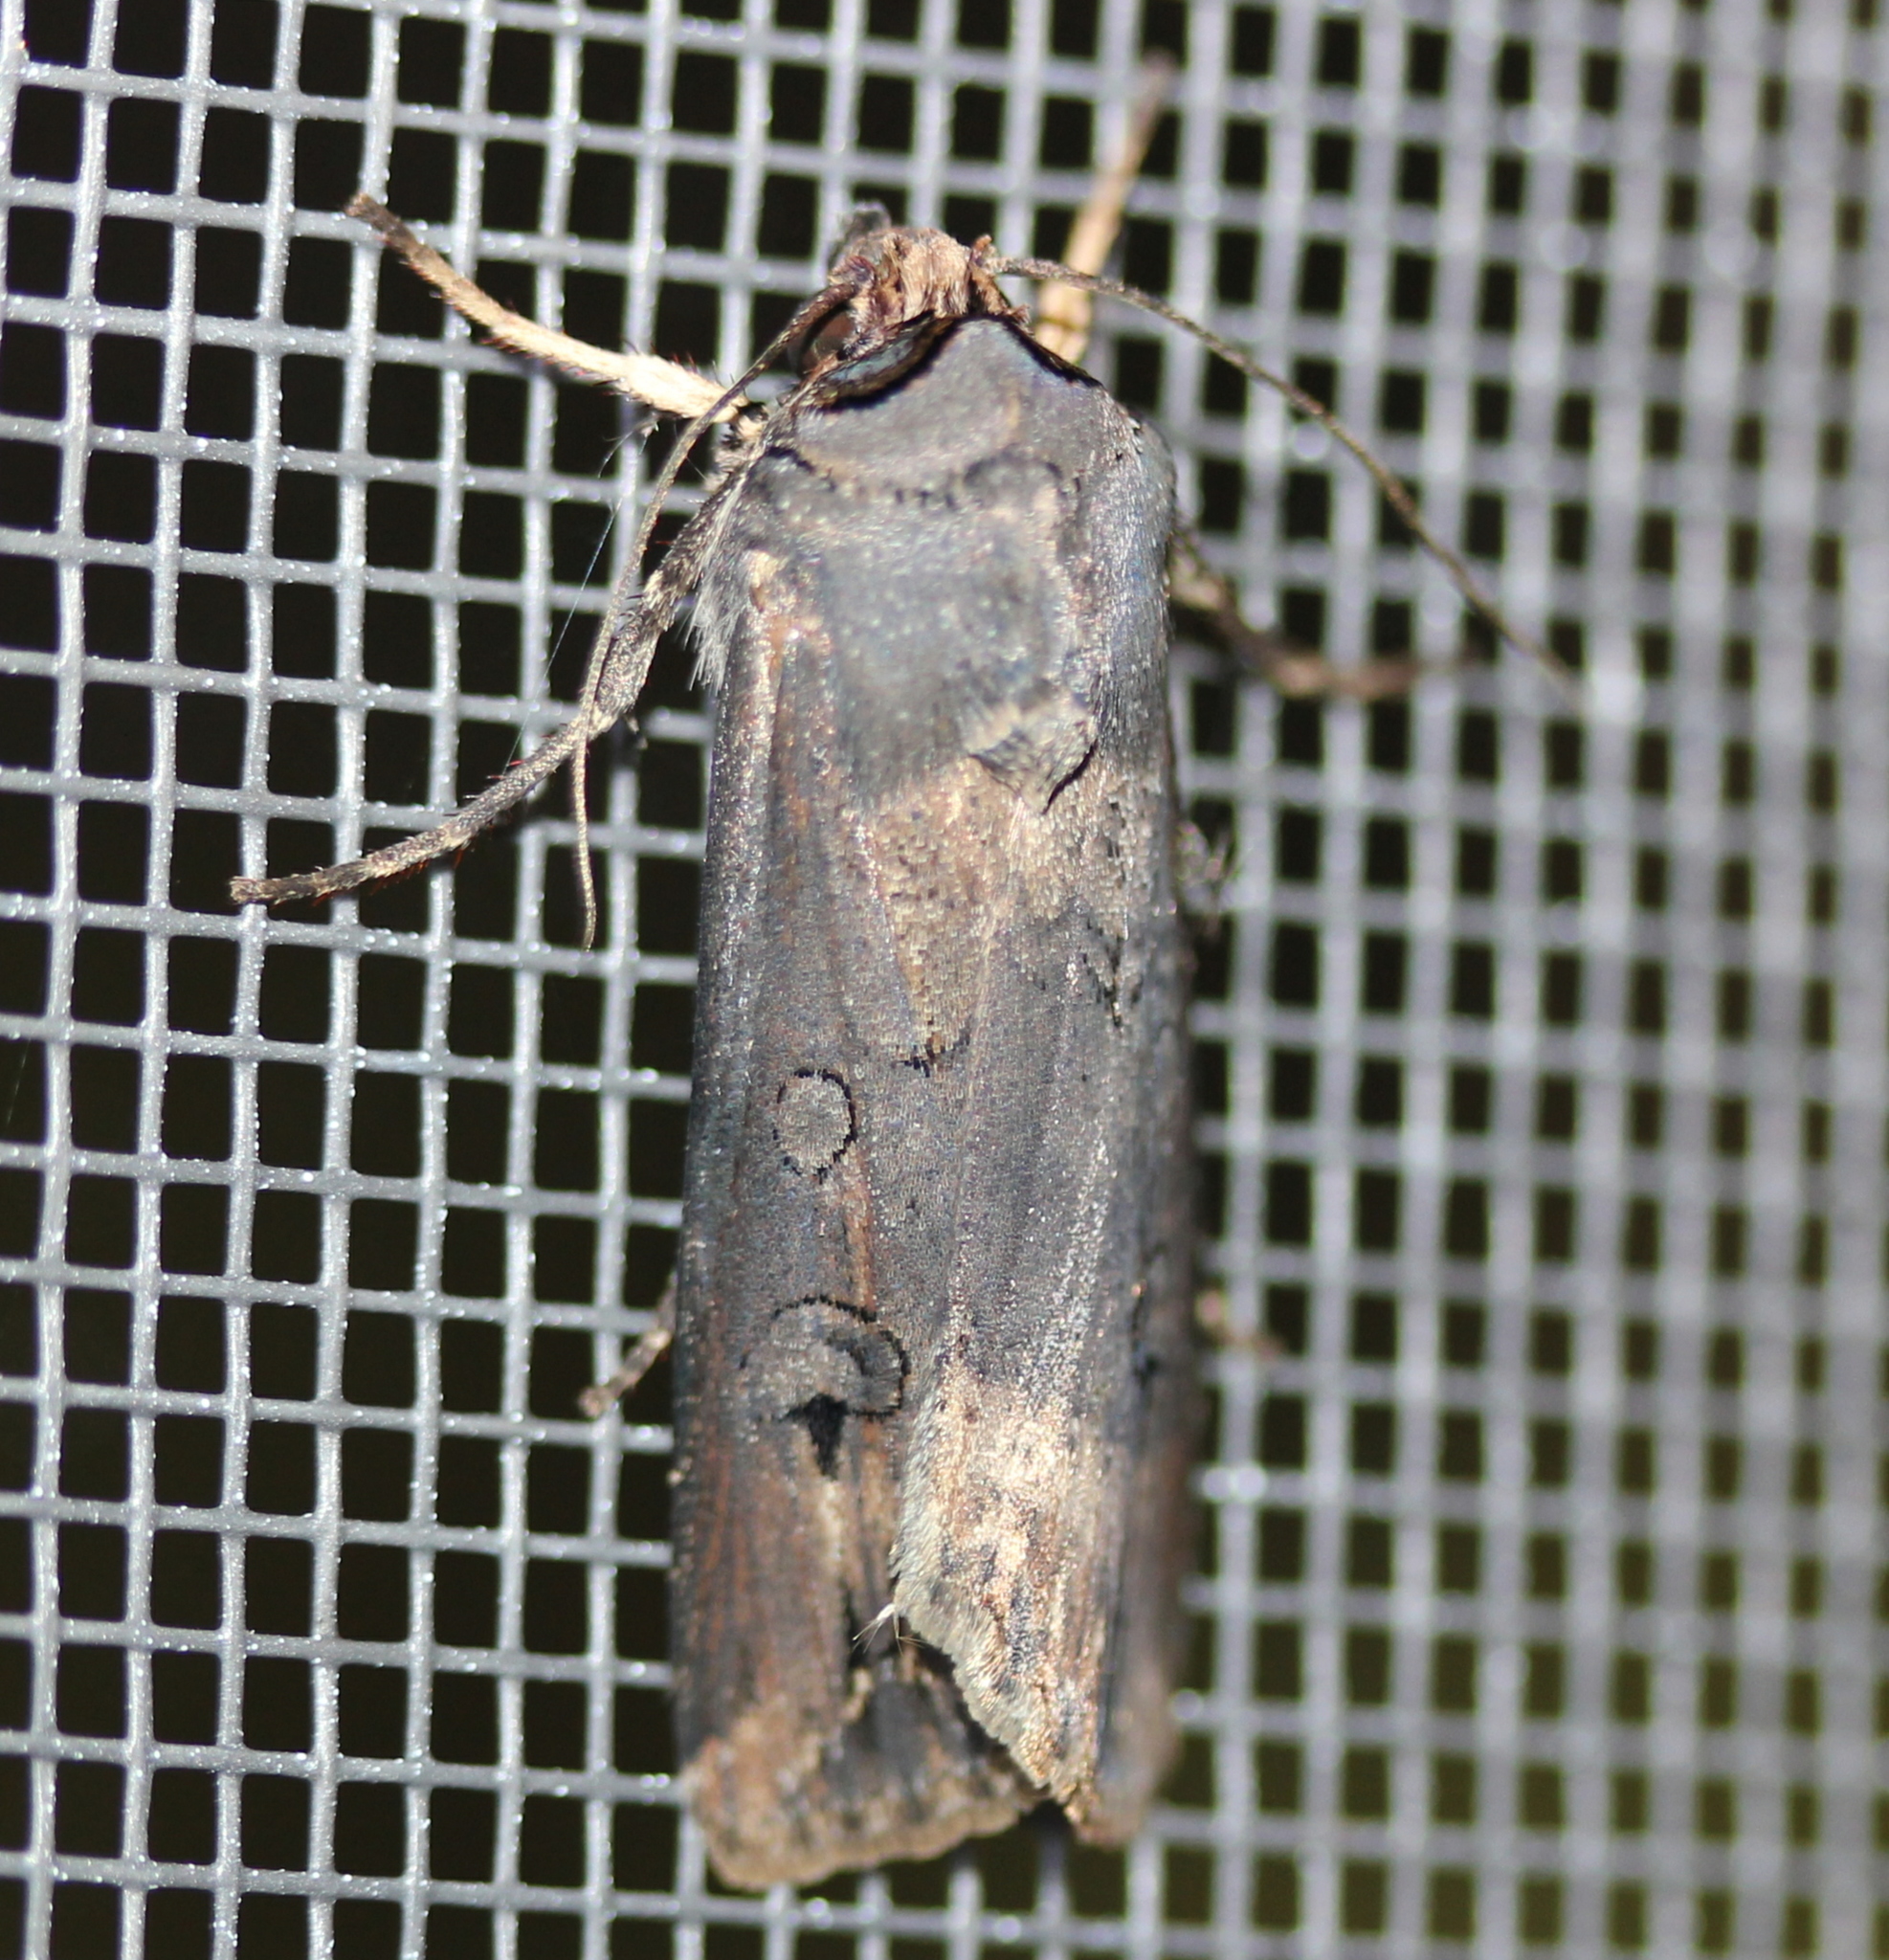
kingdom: Animalia
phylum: Arthropoda
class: Insecta
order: Lepidoptera
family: Noctuidae
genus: Agrotis
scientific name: Agrotis ipsilon
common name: Dark sword-grass
